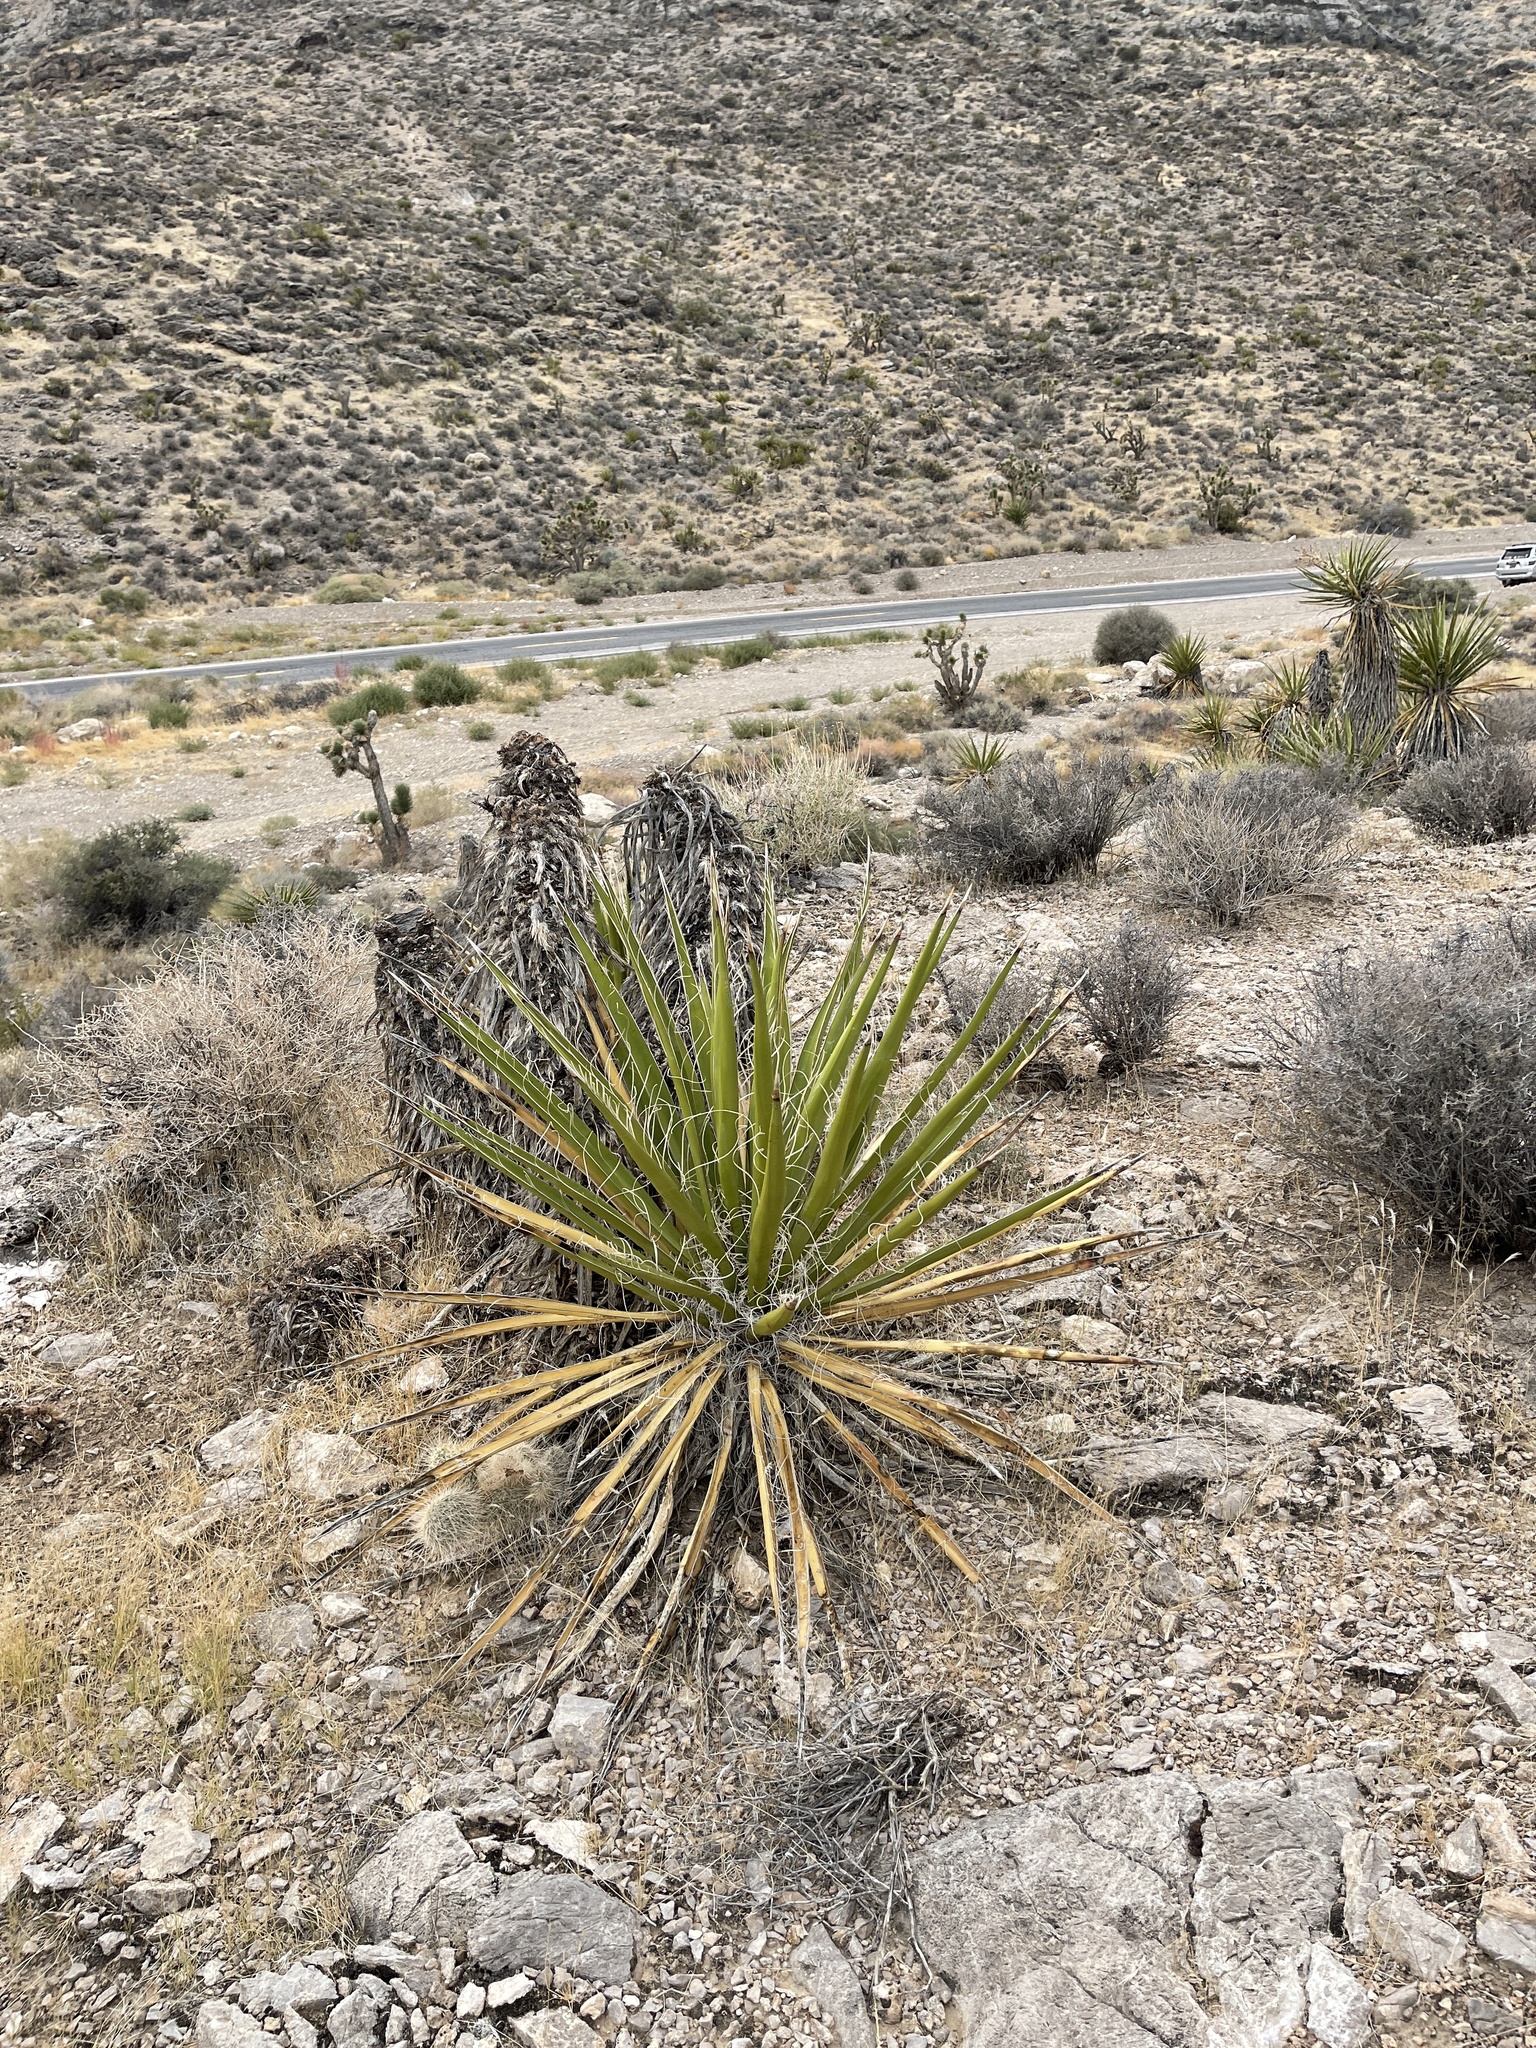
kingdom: Plantae
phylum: Tracheophyta
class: Liliopsida
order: Asparagales
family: Asparagaceae
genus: Yucca
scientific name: Yucca schidigera
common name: Mojave yucca
